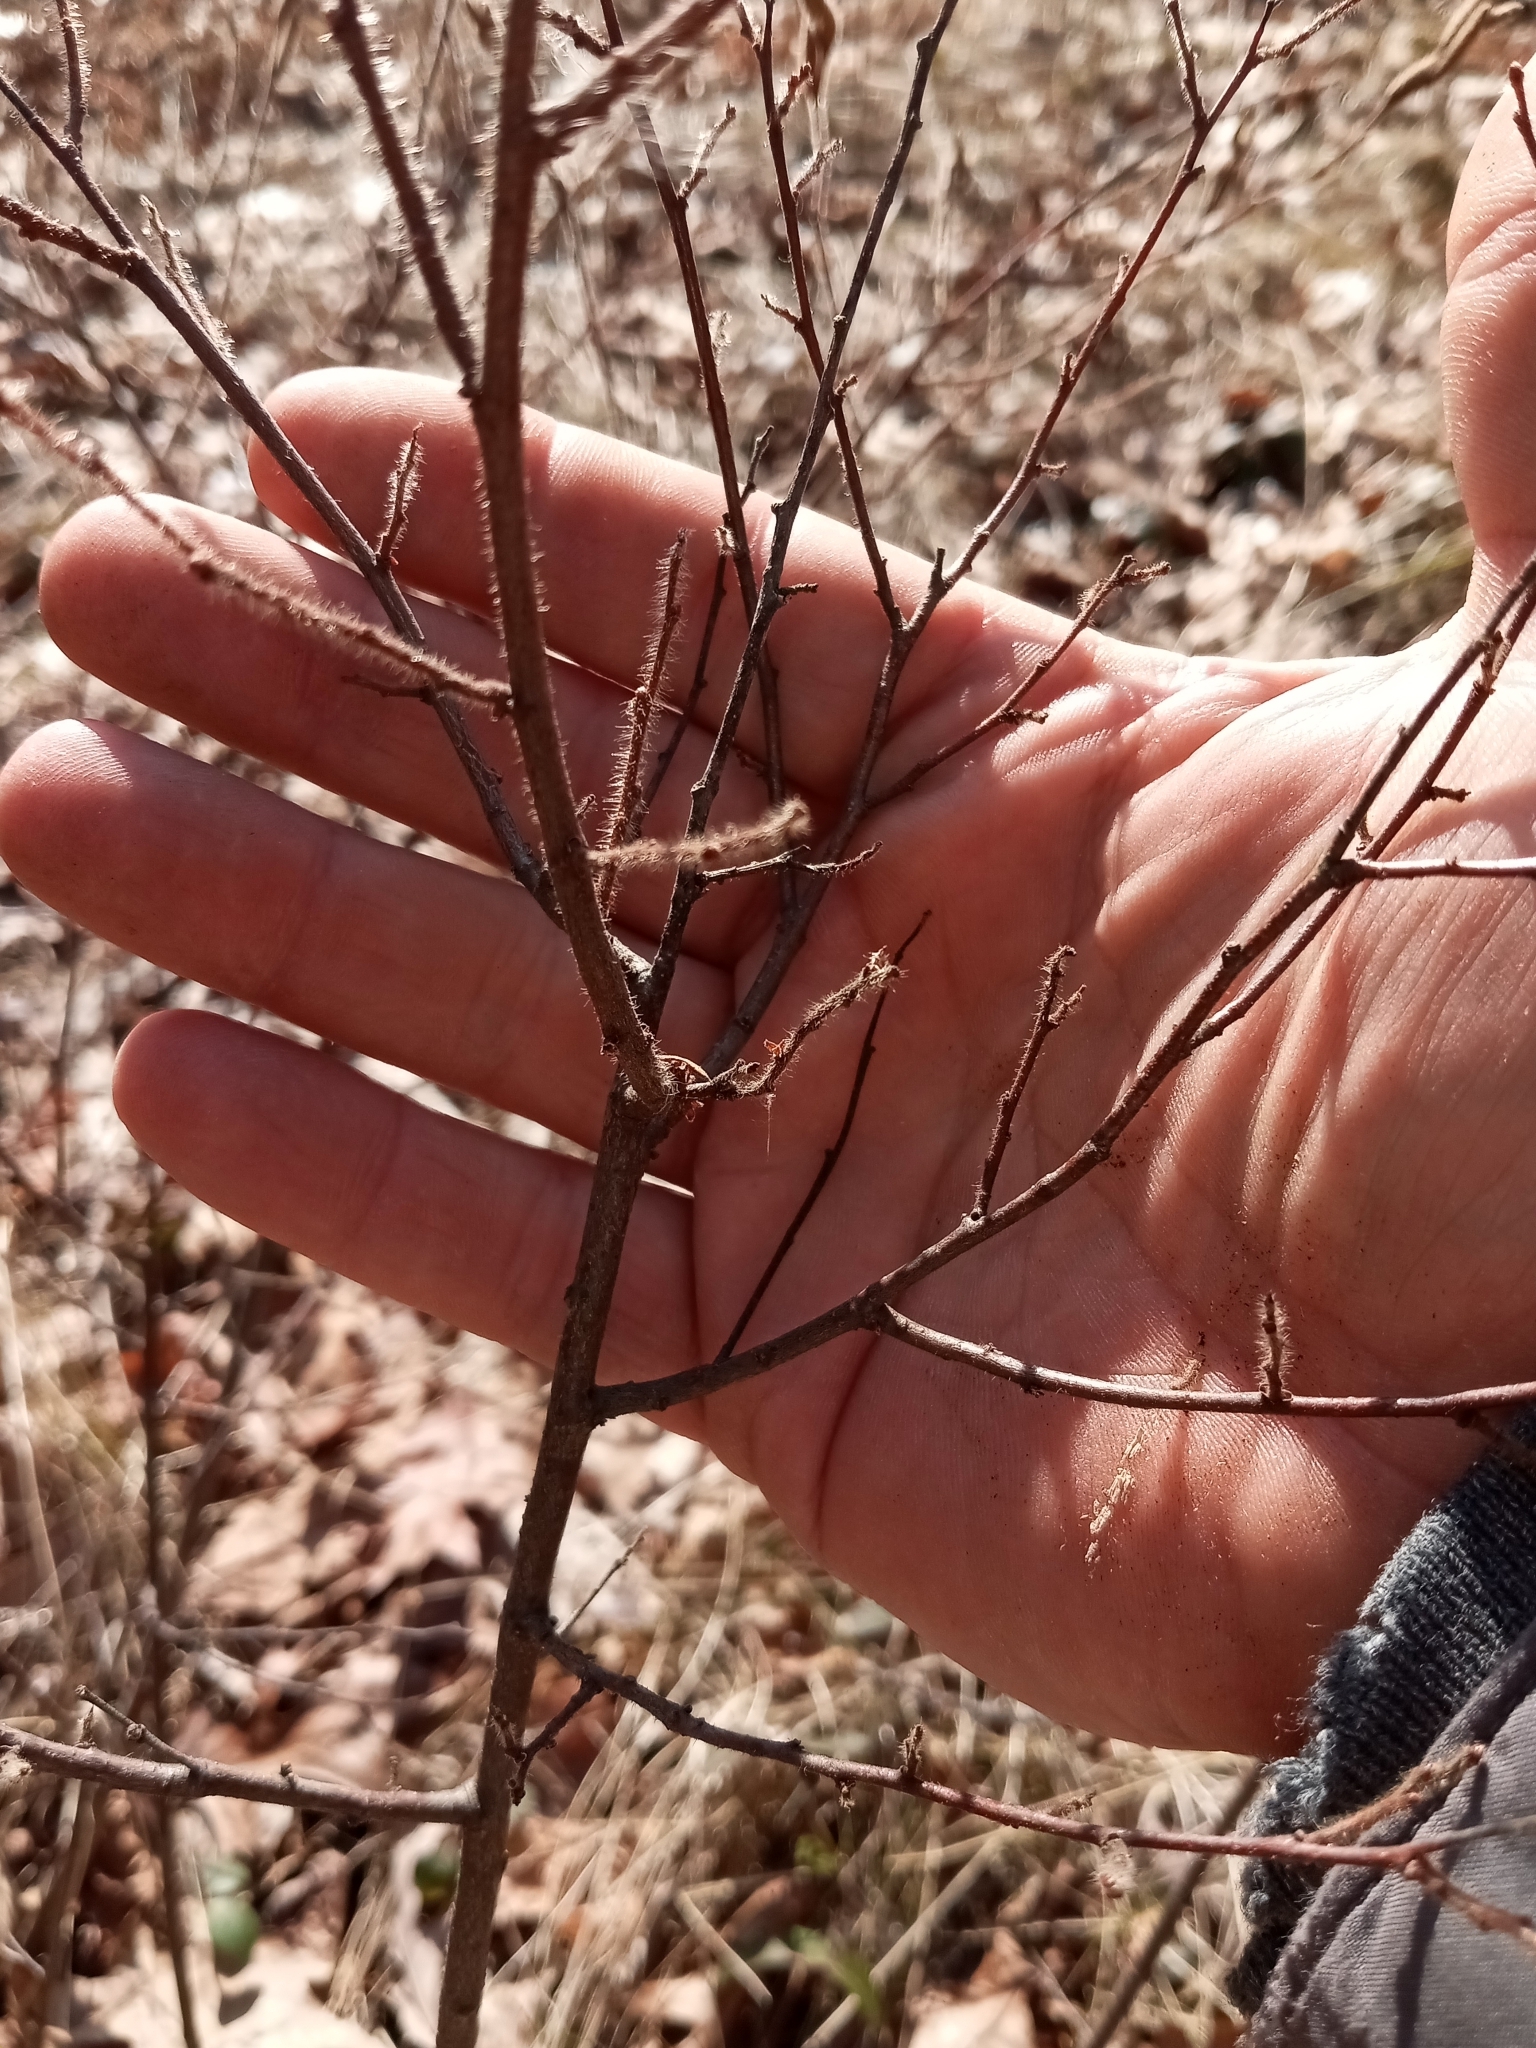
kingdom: Plantae
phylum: Tracheophyta
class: Magnoliopsida
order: Fagales
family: Myricaceae
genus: Comptonia
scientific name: Comptonia peregrina
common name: Sweet-fern
